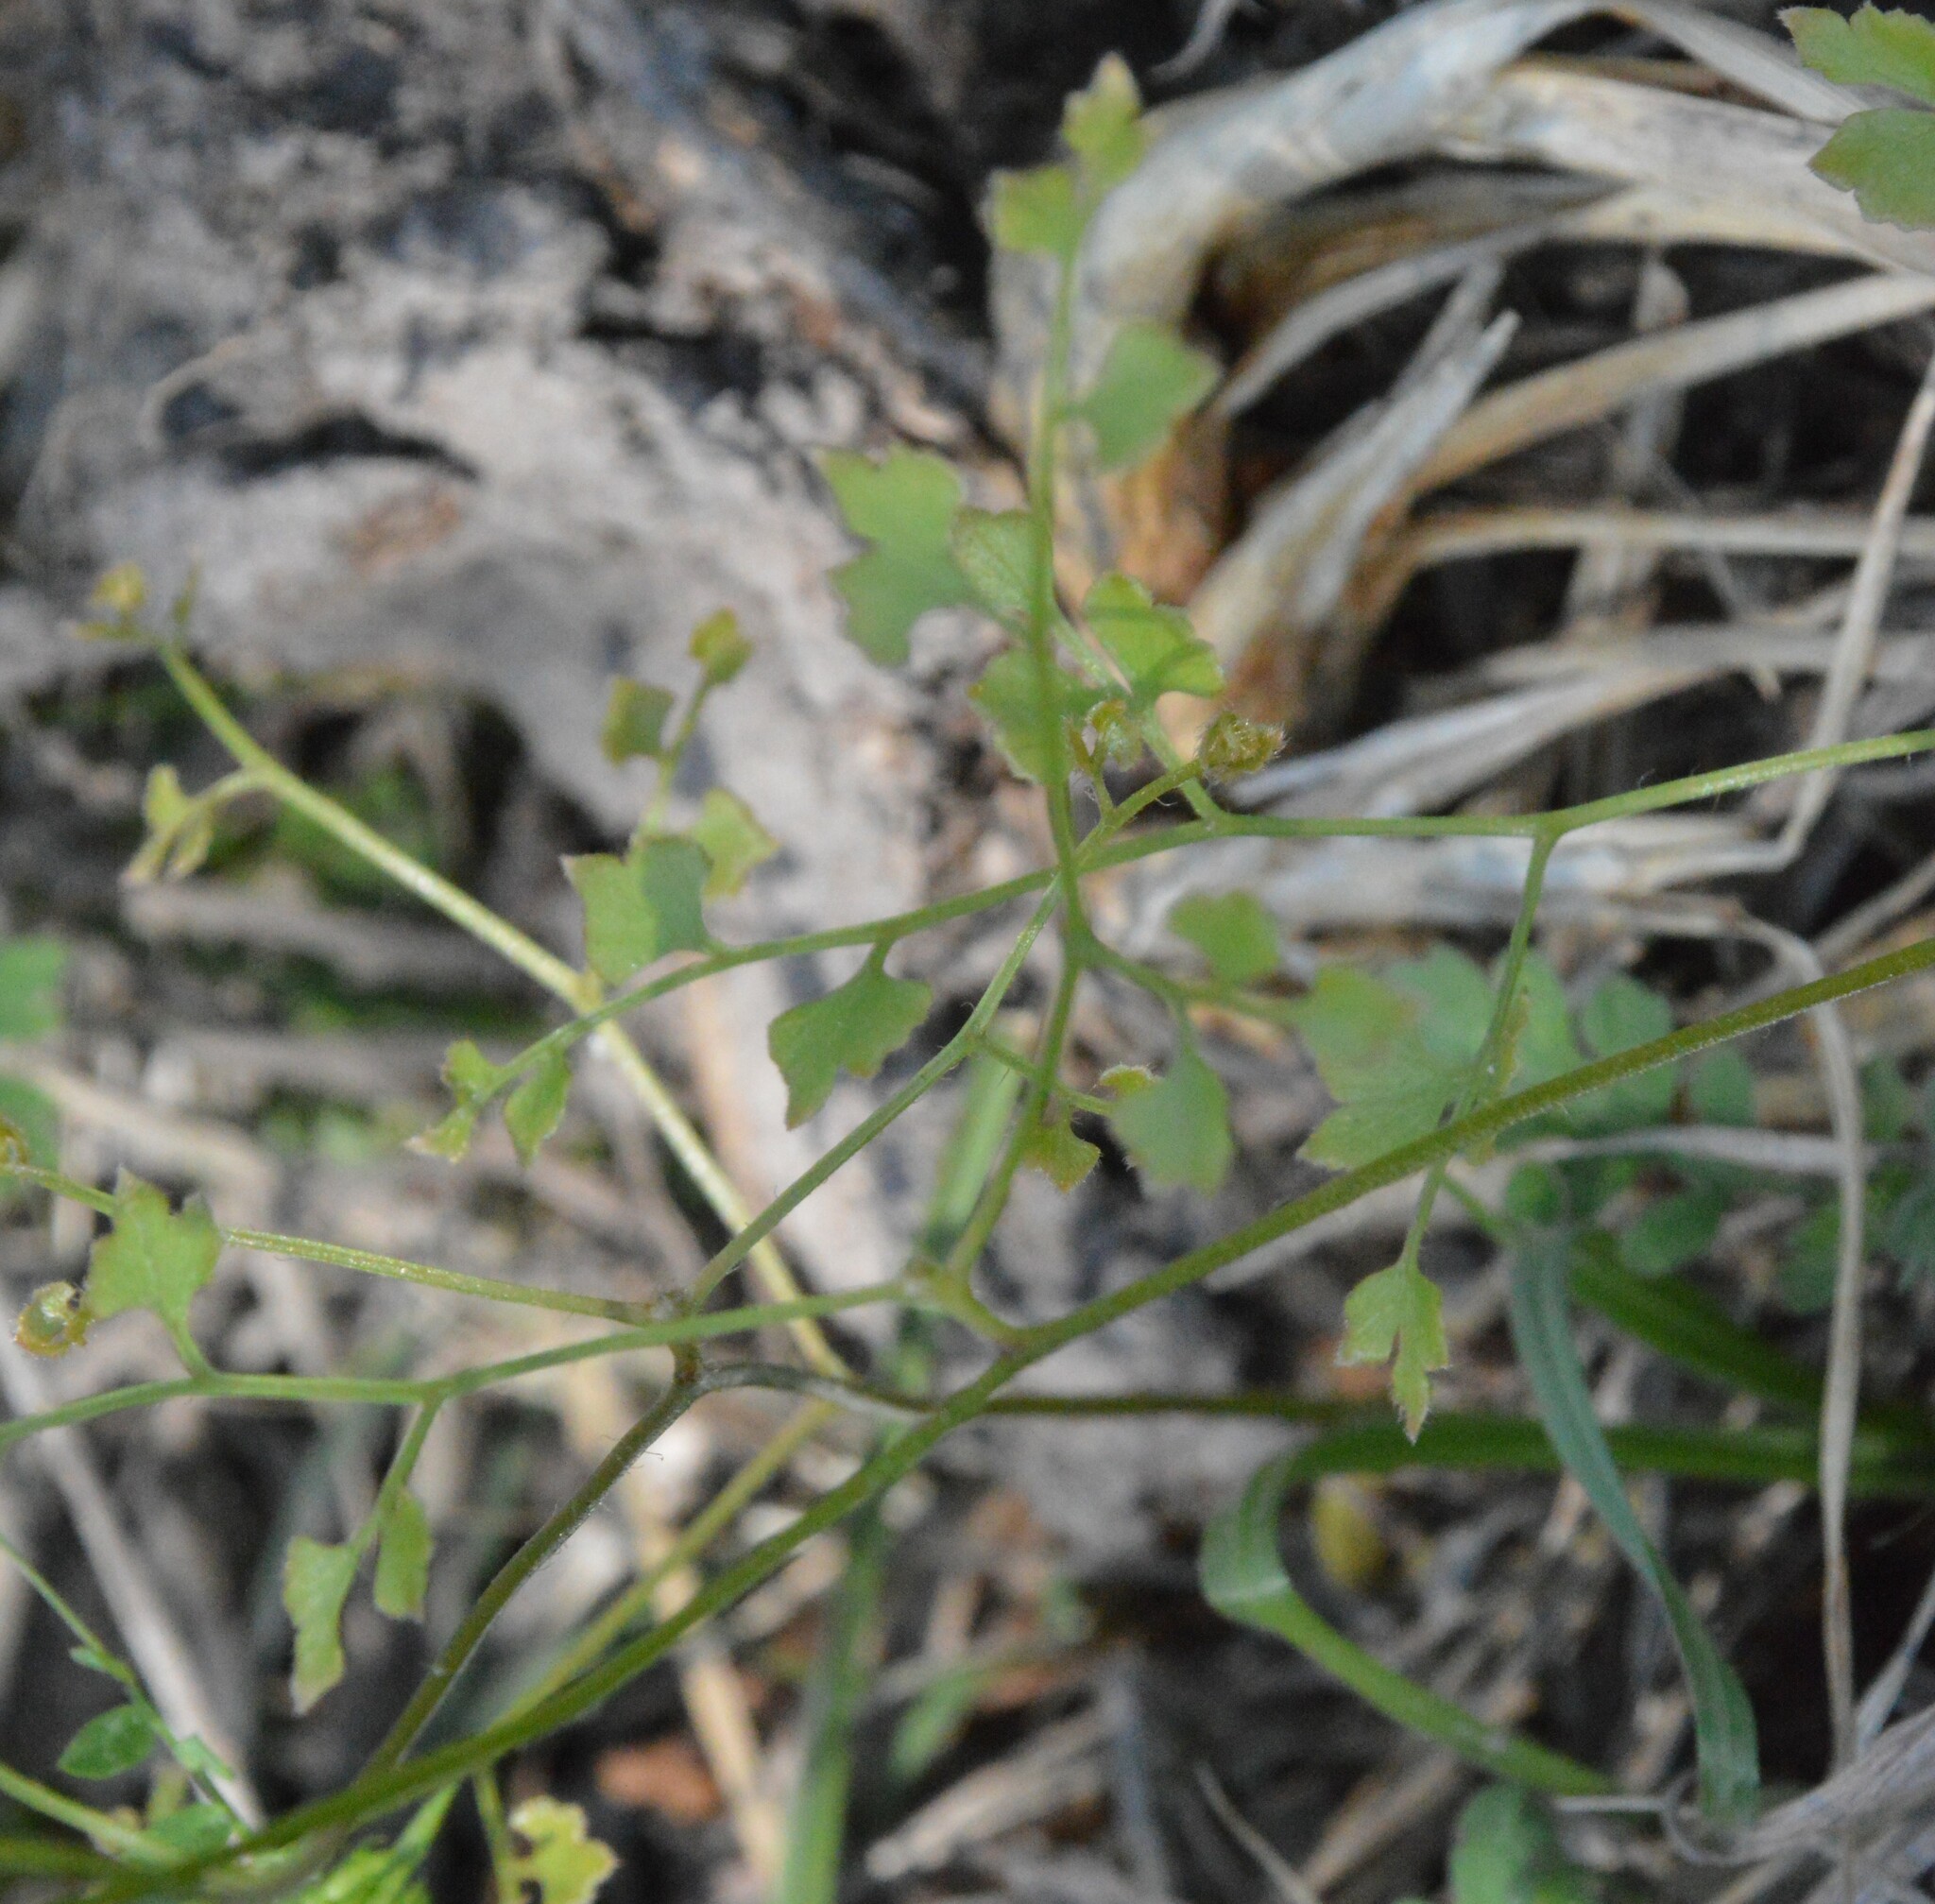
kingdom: Plantae
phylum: Tracheophyta
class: Polypodiopsida
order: Schizaeales
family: Lygodiaceae
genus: Lygodium
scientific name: Lygodium japonicum
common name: Japanese climbing fern
